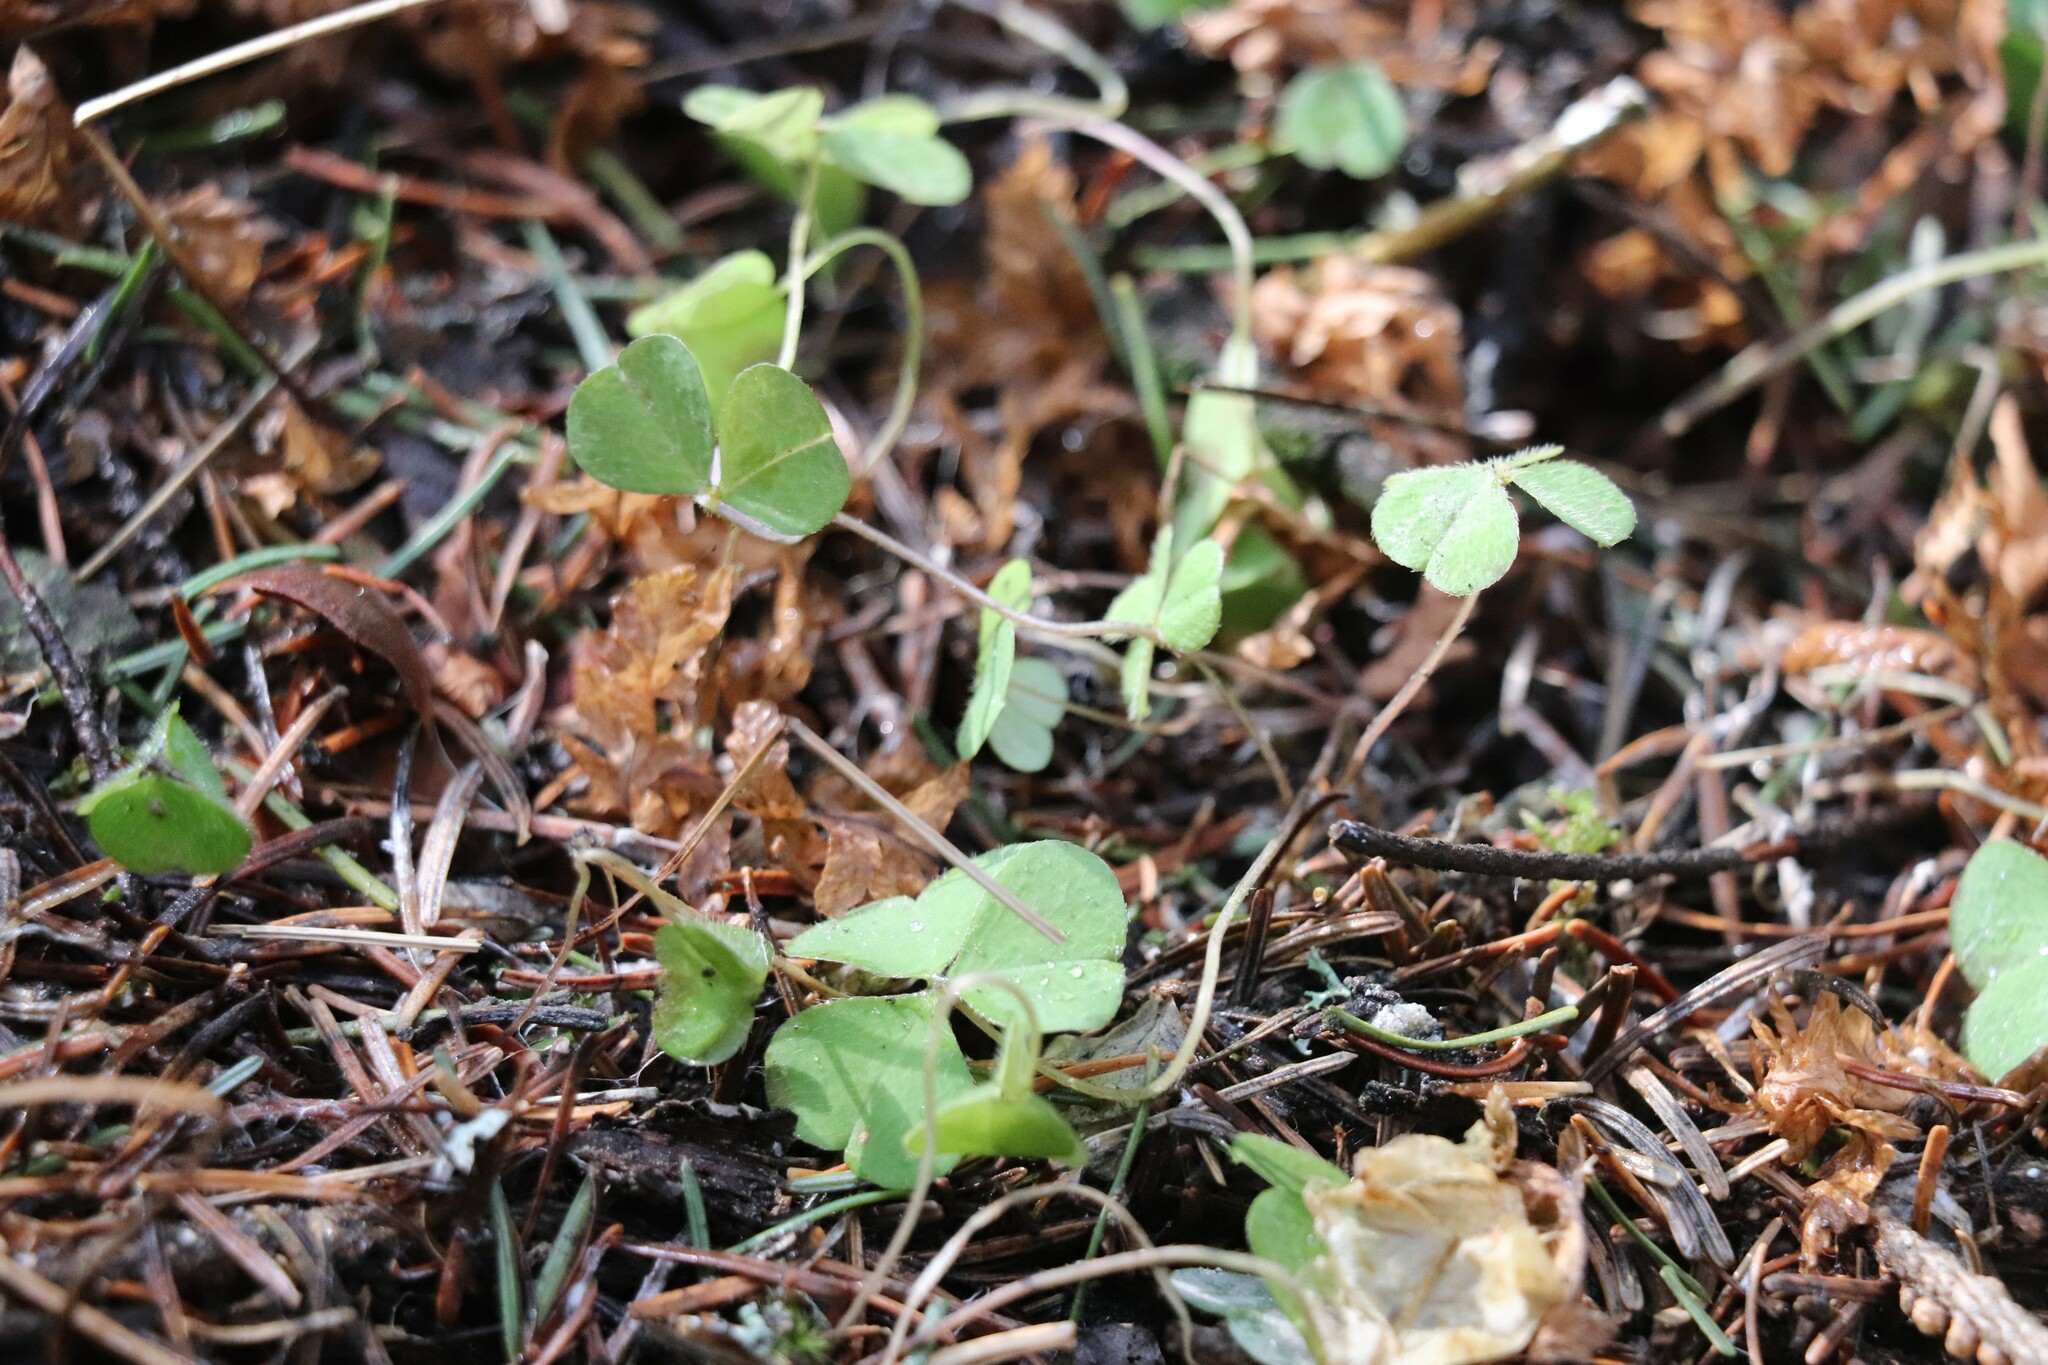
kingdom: Plantae
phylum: Tracheophyta
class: Magnoliopsida
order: Oxalidales
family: Oxalidaceae
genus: Oxalis
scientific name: Oxalis acetosella
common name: Wood-sorrel
